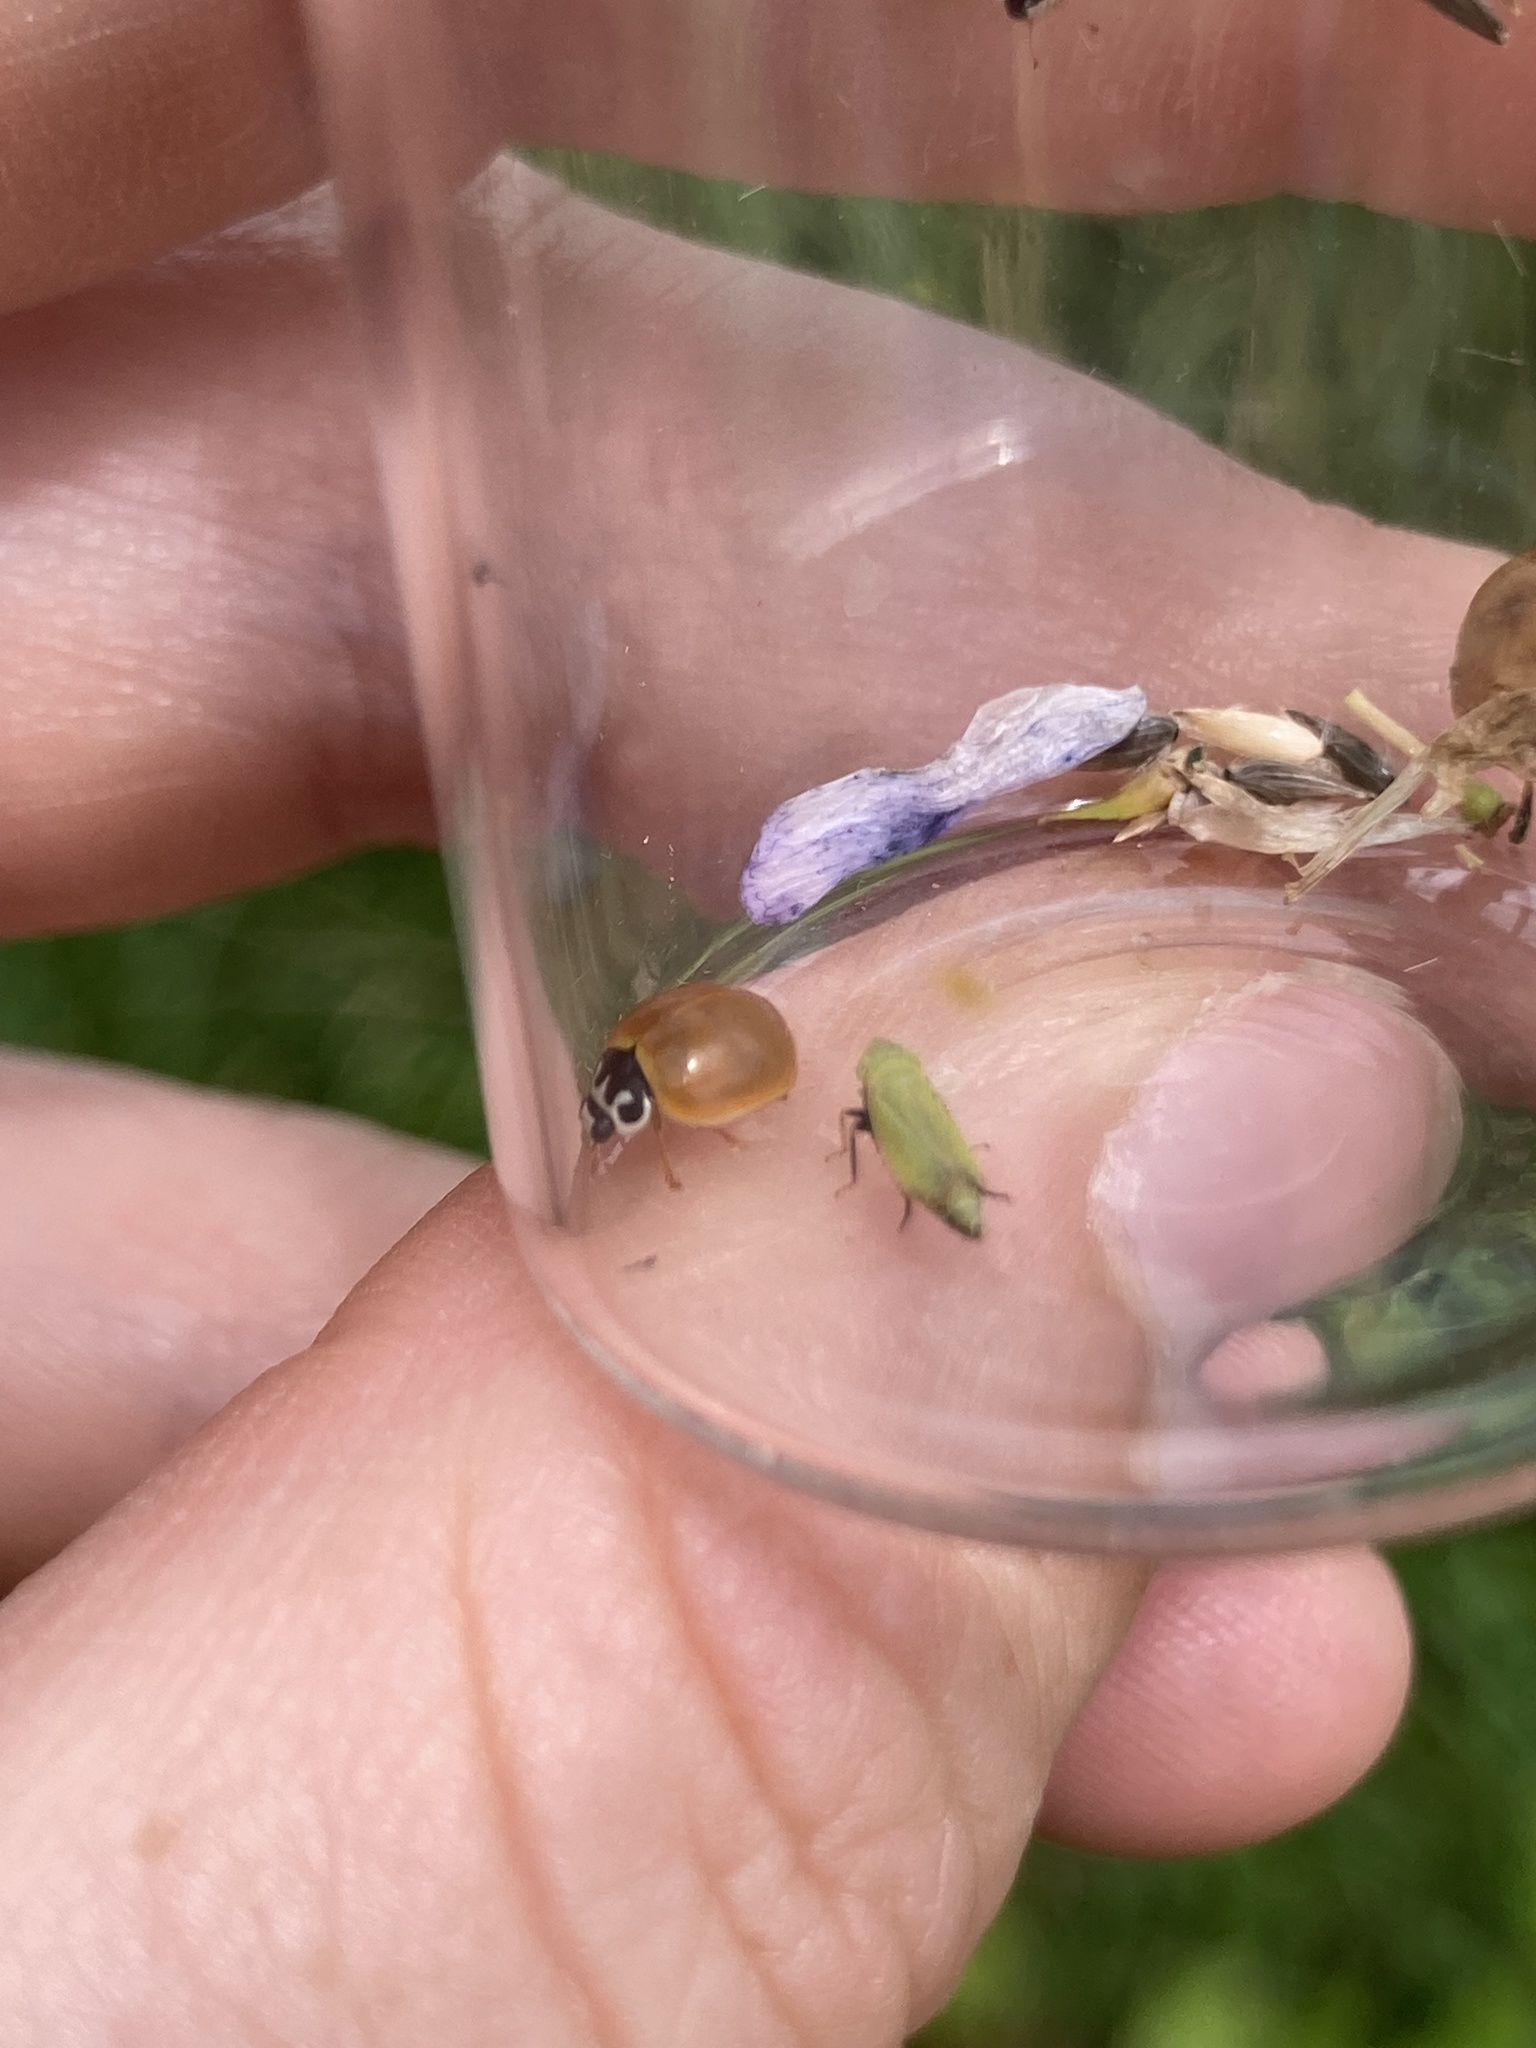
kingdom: Animalia
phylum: Arthropoda
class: Insecta
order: Coleoptera
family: Coccinellidae
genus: Cycloneda
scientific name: Cycloneda munda
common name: Polished lady beetle
